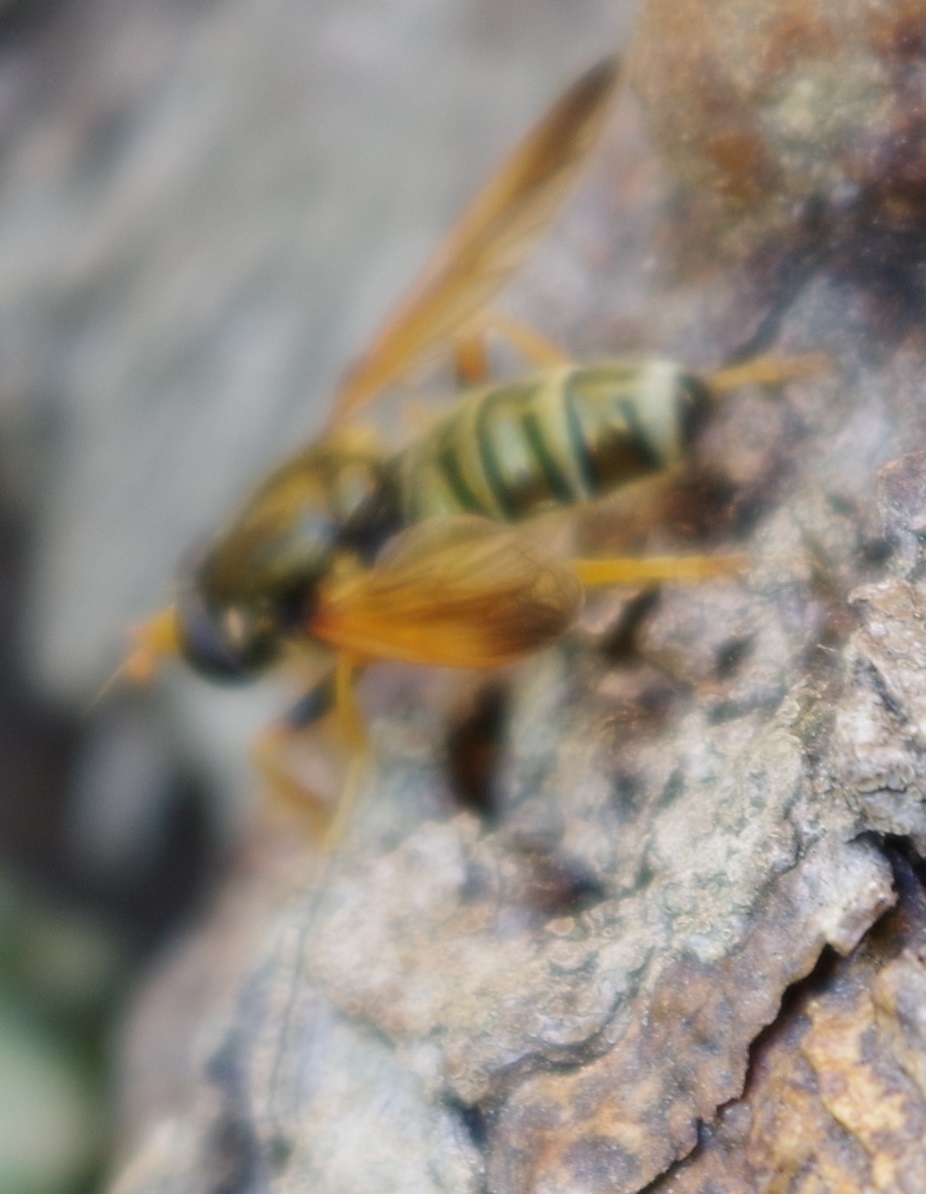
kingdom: Animalia
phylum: Arthropoda
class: Insecta
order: Diptera
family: Syrphidae
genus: Caliprobola
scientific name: Caliprobola speciosa
